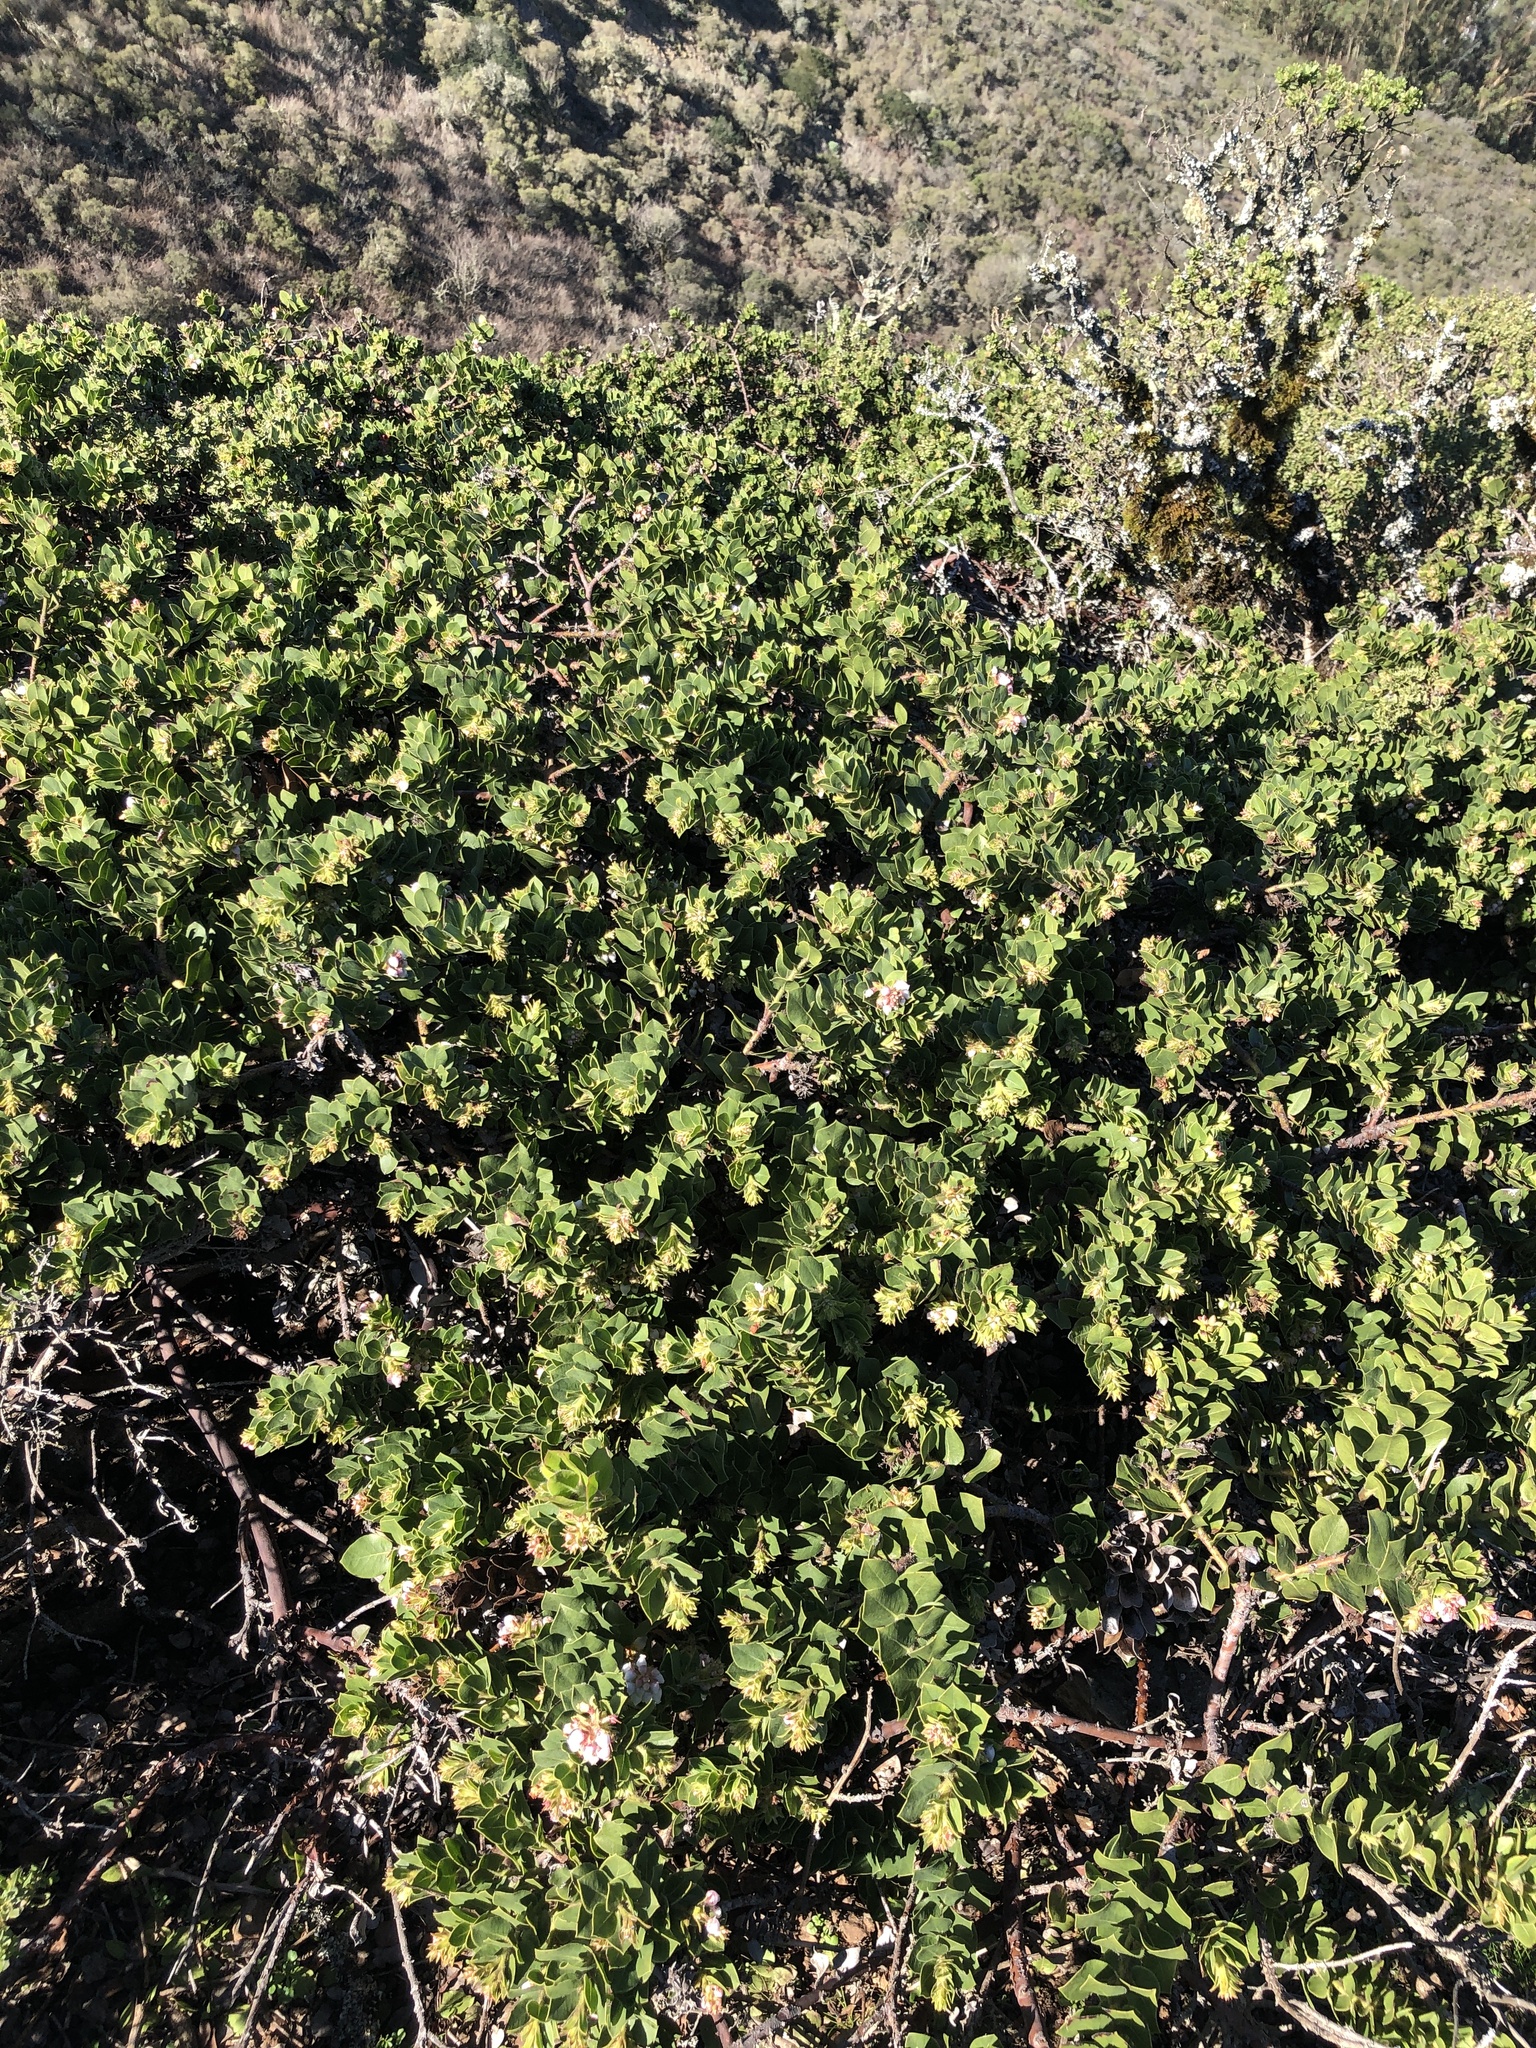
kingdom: Plantae
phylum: Tracheophyta
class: Magnoliopsida
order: Ericales
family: Ericaceae
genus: Arctostaphylos
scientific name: Arctostaphylos imbricata
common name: San bruno mountain manzanita
